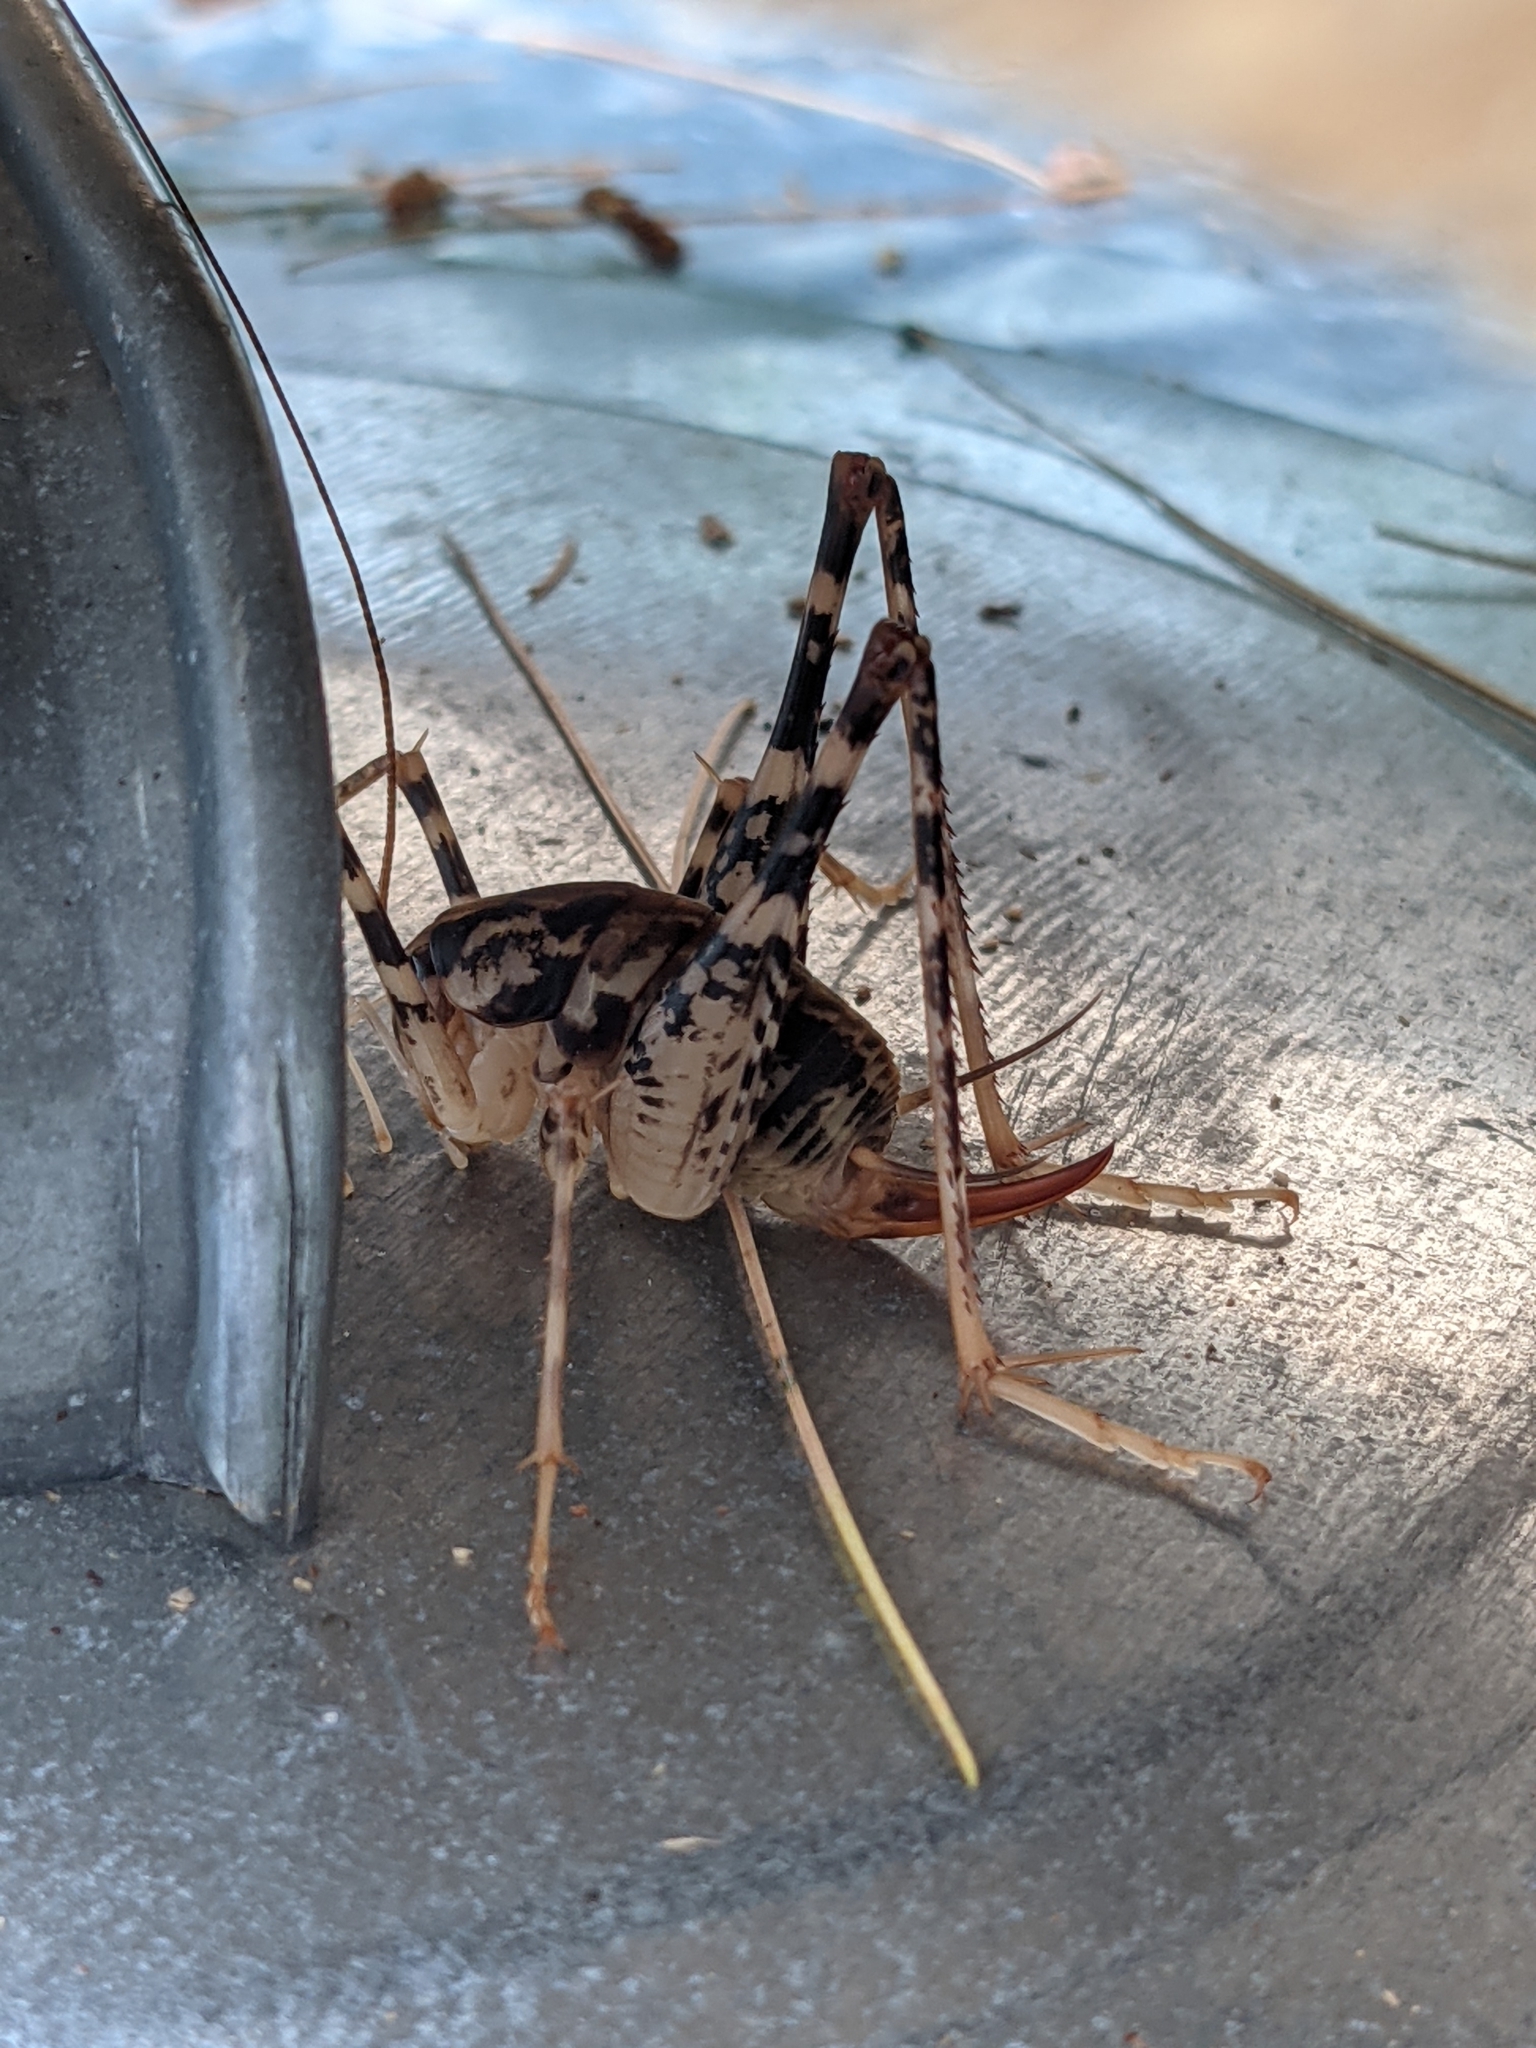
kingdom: Animalia
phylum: Arthropoda
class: Insecta
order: Orthoptera
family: Rhaphidophoridae
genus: Diestrammena
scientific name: Diestrammena japanica
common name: Japanese camel cricket
